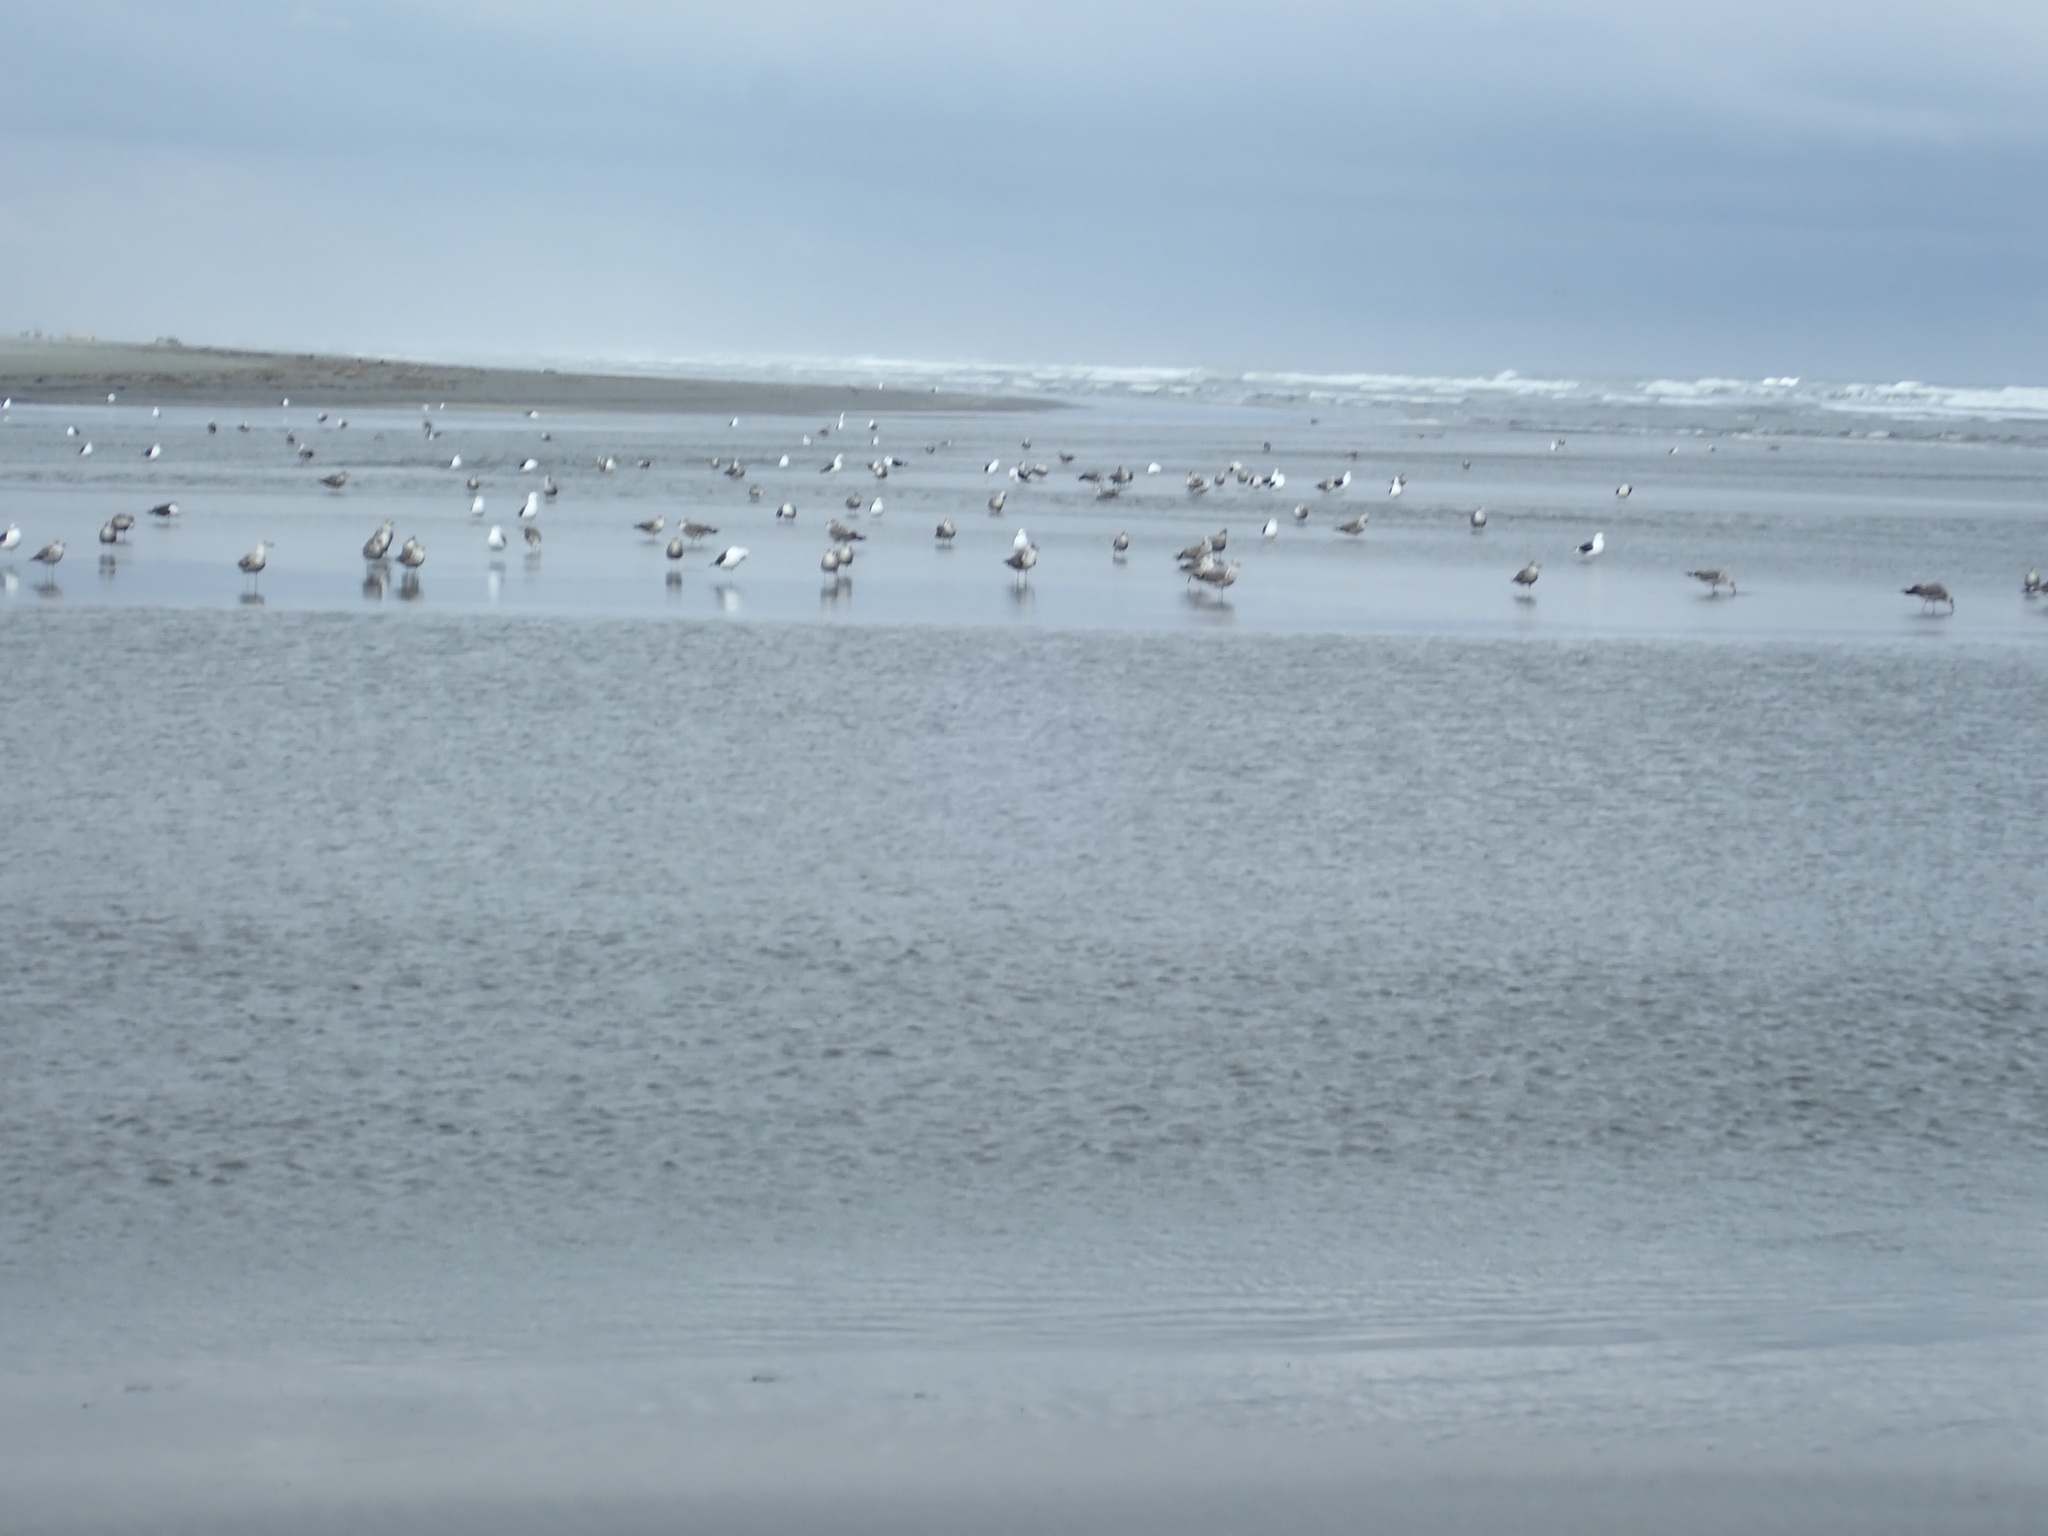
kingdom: Animalia
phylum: Chordata
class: Aves
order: Charadriiformes
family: Laridae
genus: Larus
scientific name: Larus dominicanus
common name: Kelp gull
